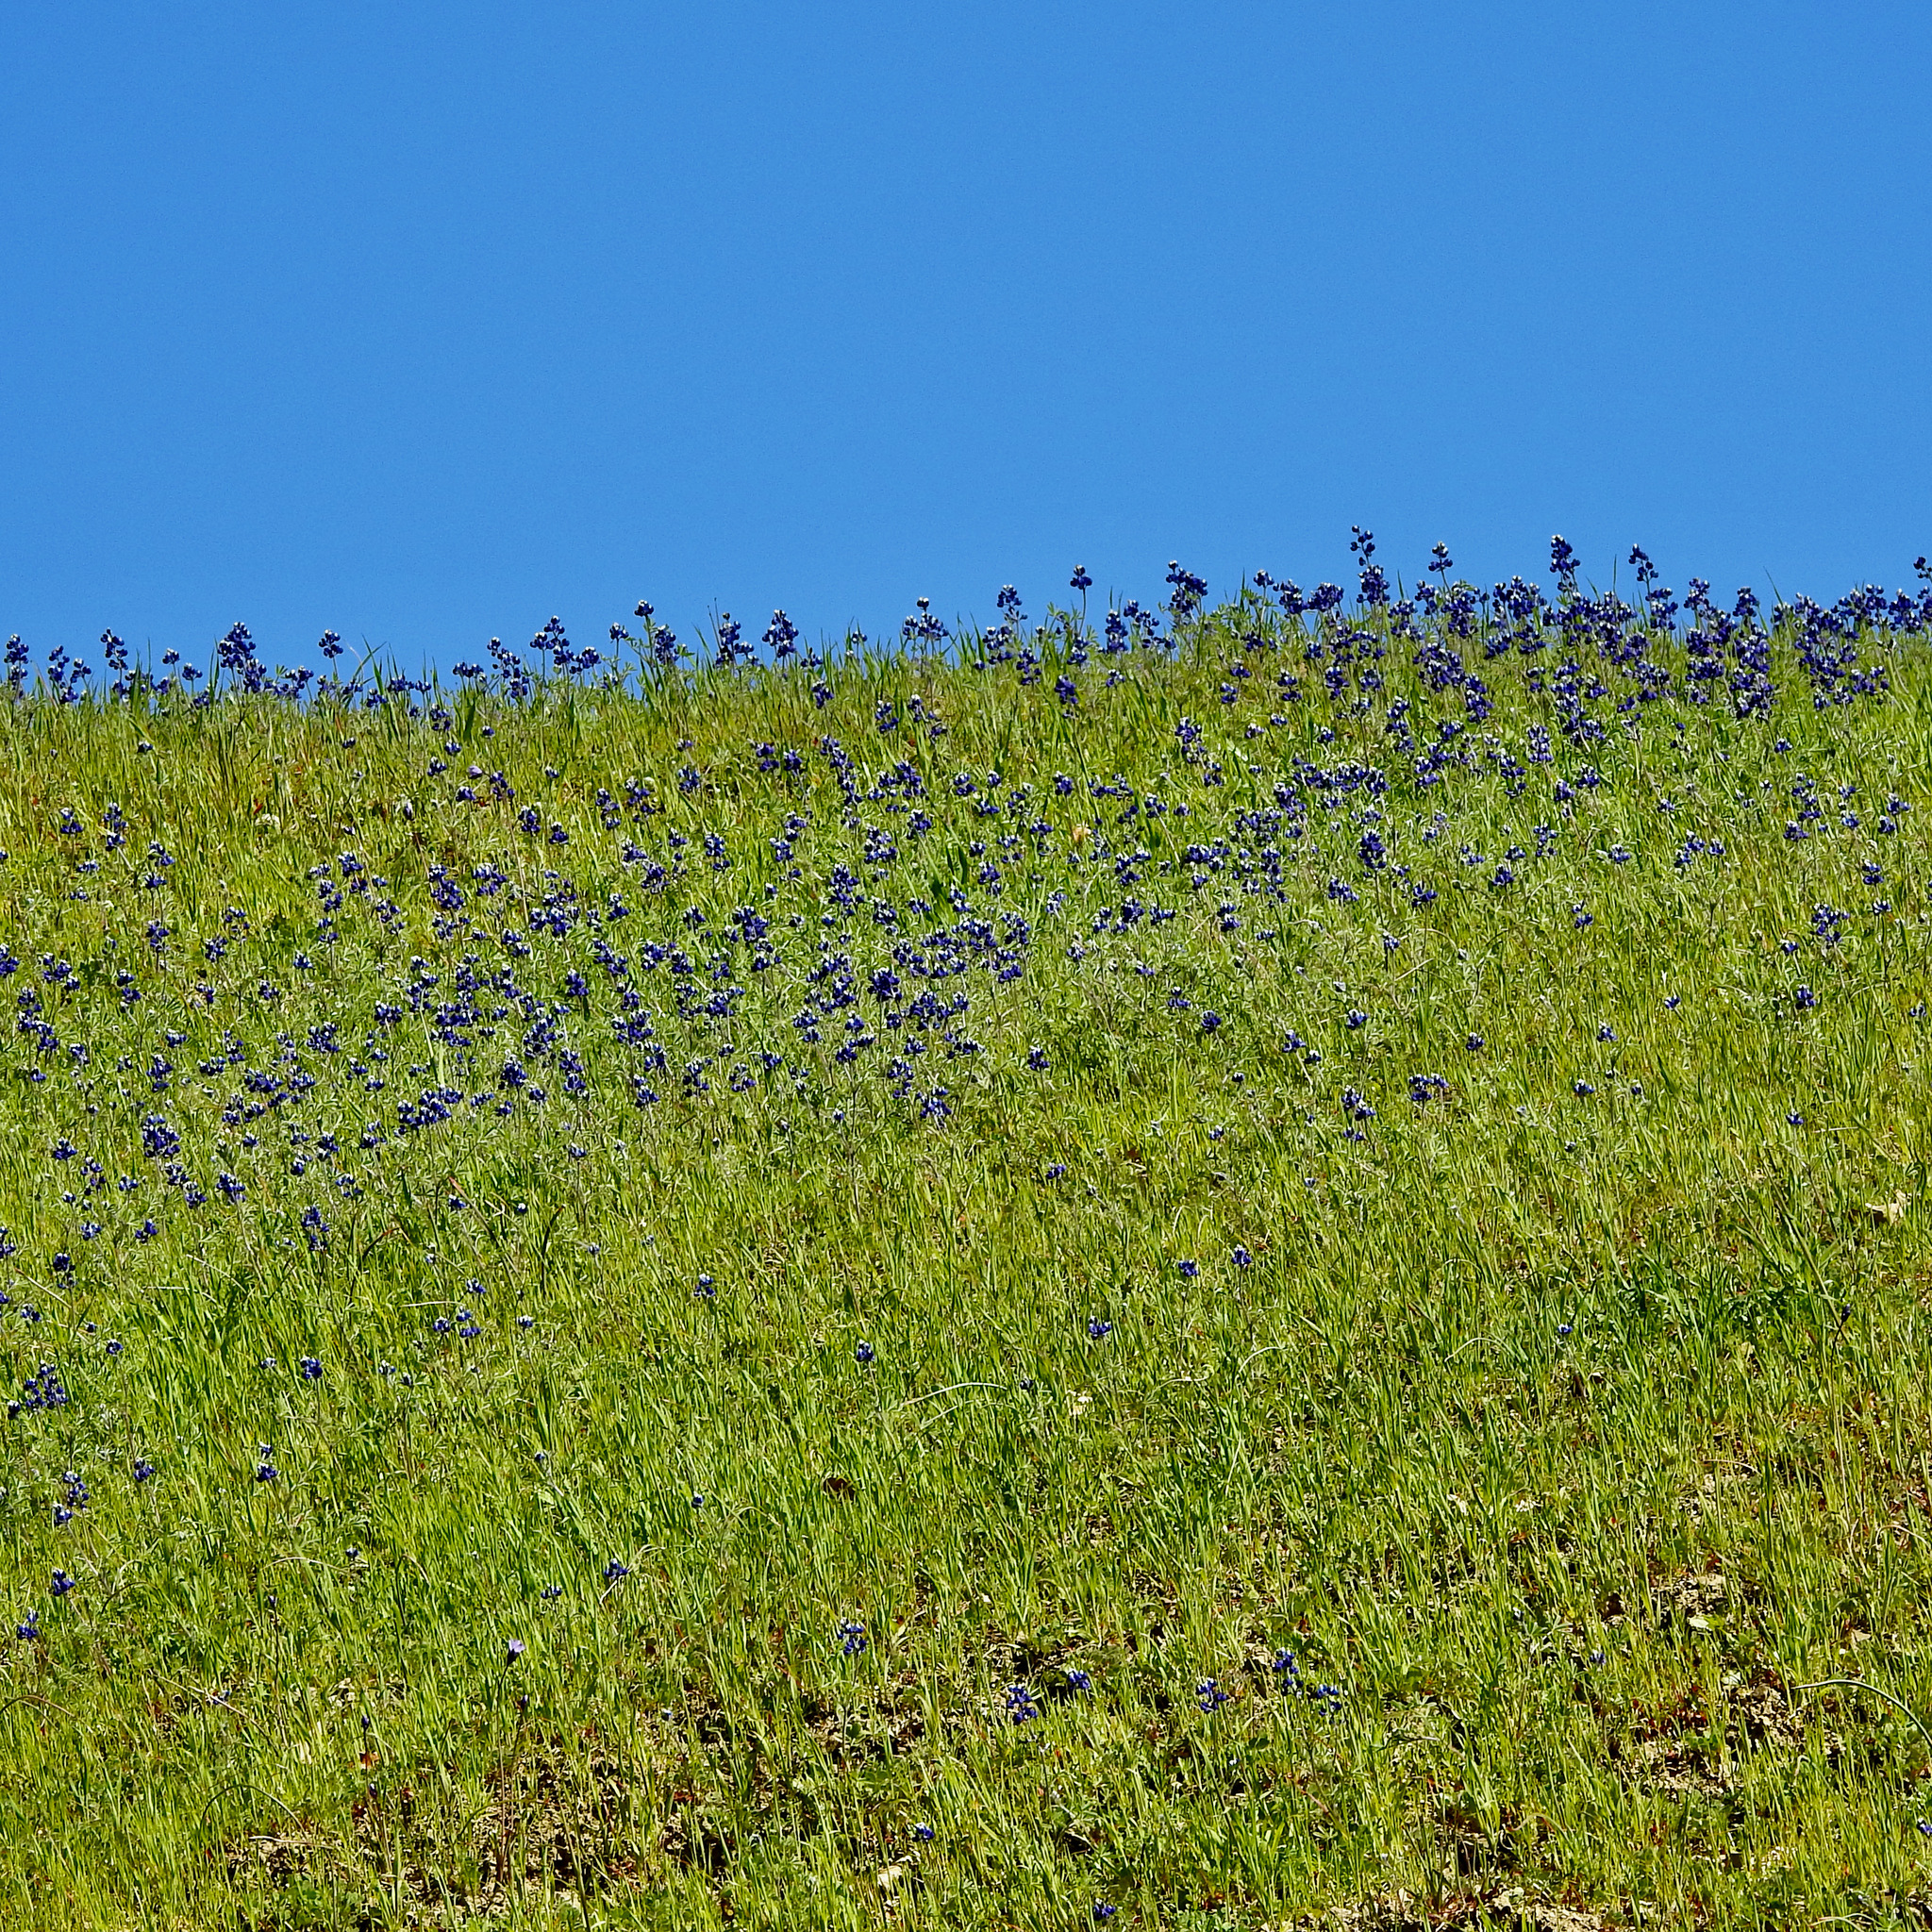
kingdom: Plantae
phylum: Tracheophyta
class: Magnoliopsida
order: Fabales
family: Fabaceae
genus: Lupinus
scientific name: Lupinus nanus
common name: Orean blue lupin
